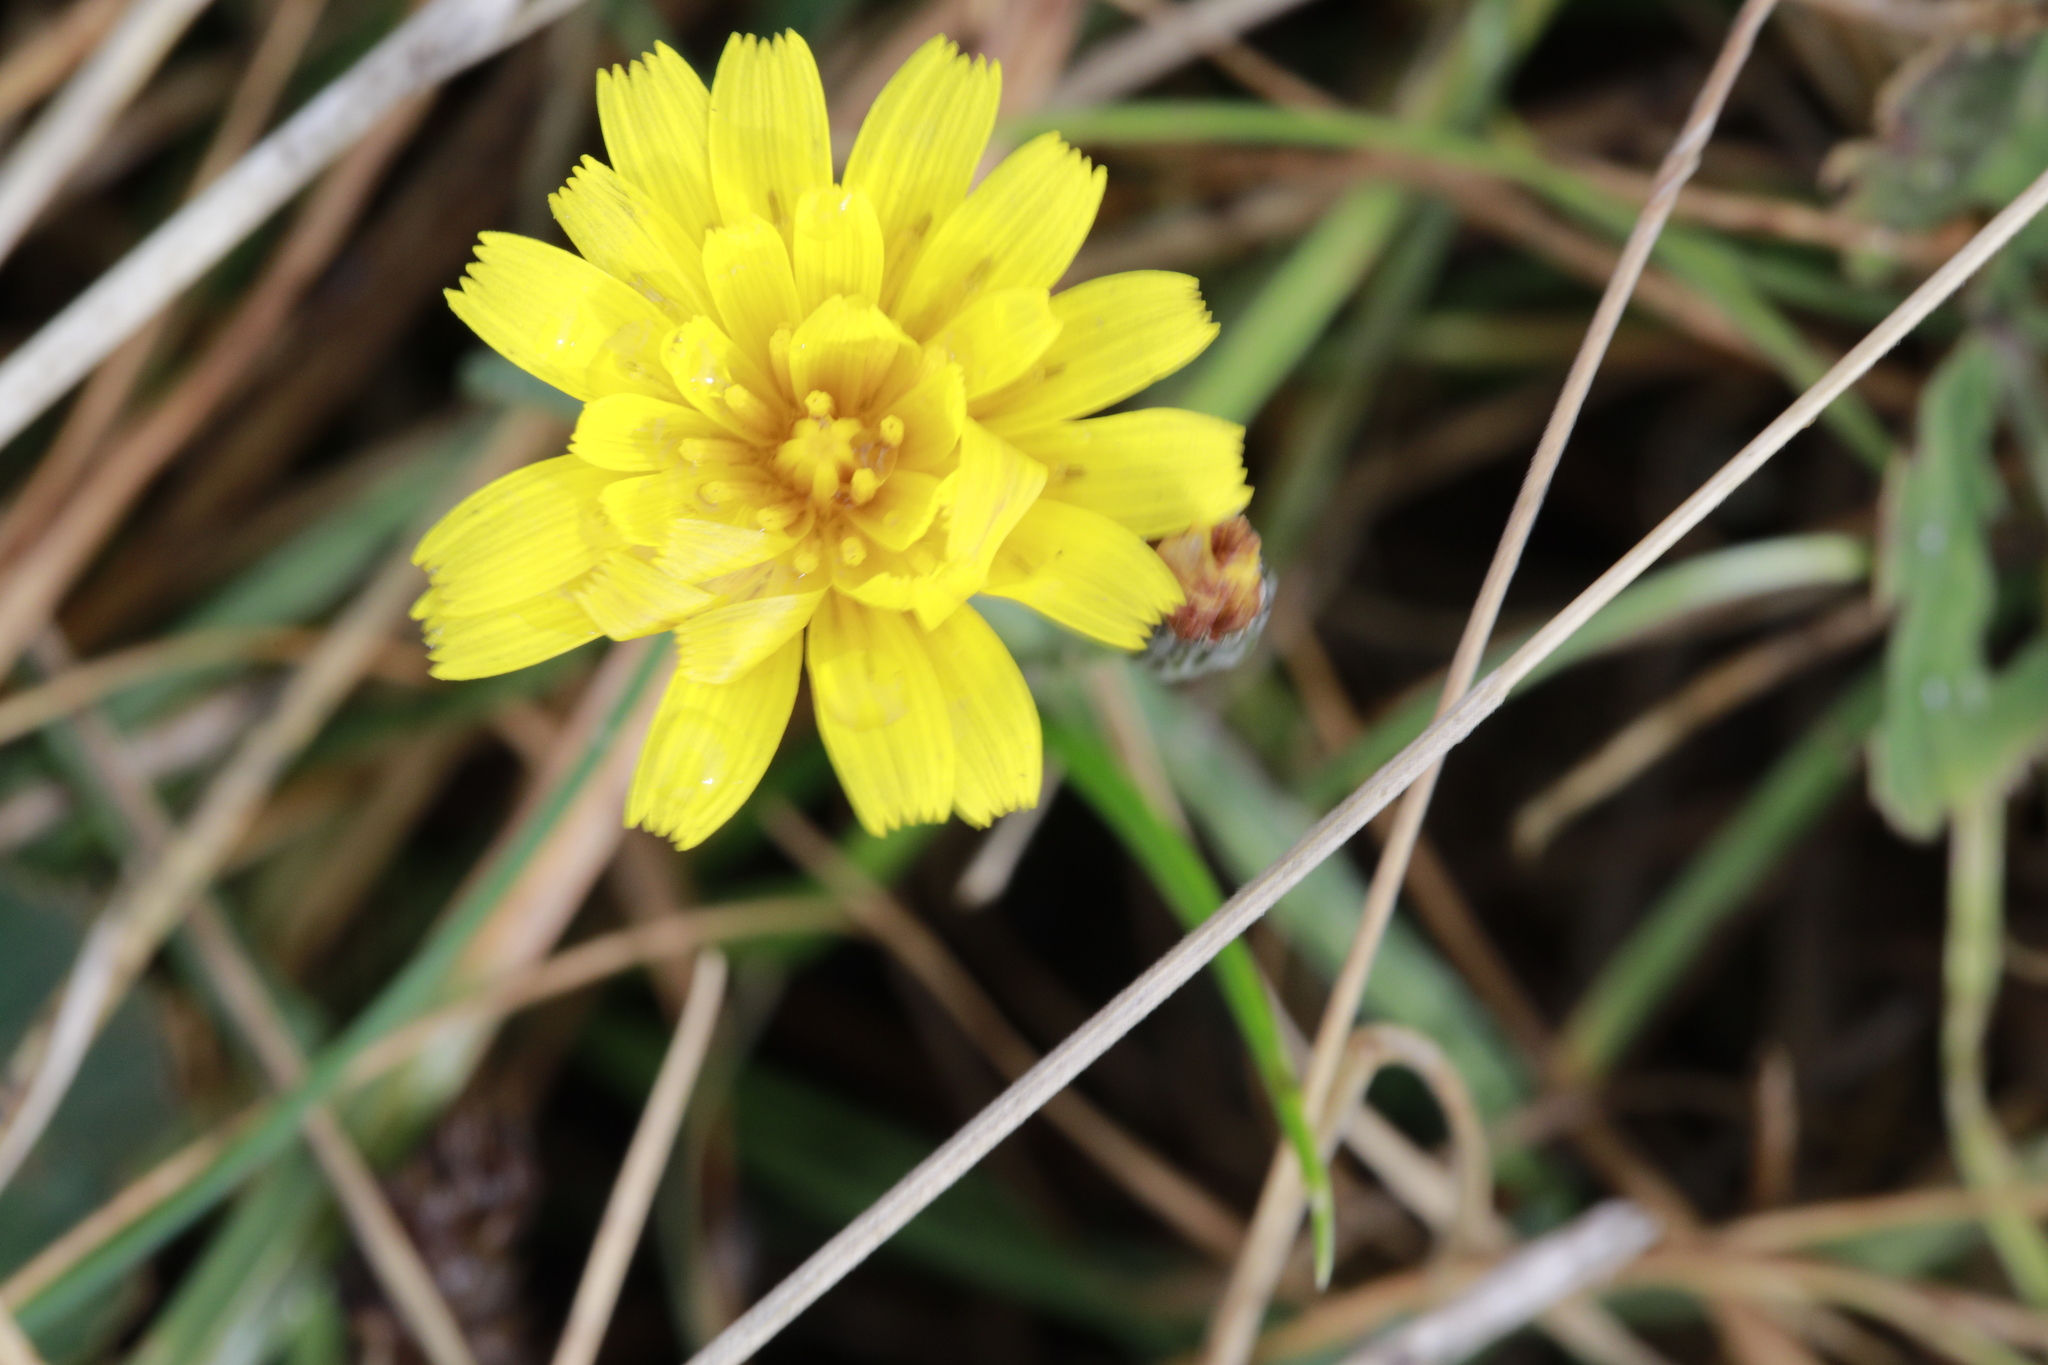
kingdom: Plantae
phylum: Tracheophyta
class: Magnoliopsida
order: Asterales
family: Asteraceae
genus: Scorzoneroides
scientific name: Scorzoneroides autumnalis
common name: Autumn hawkbit
